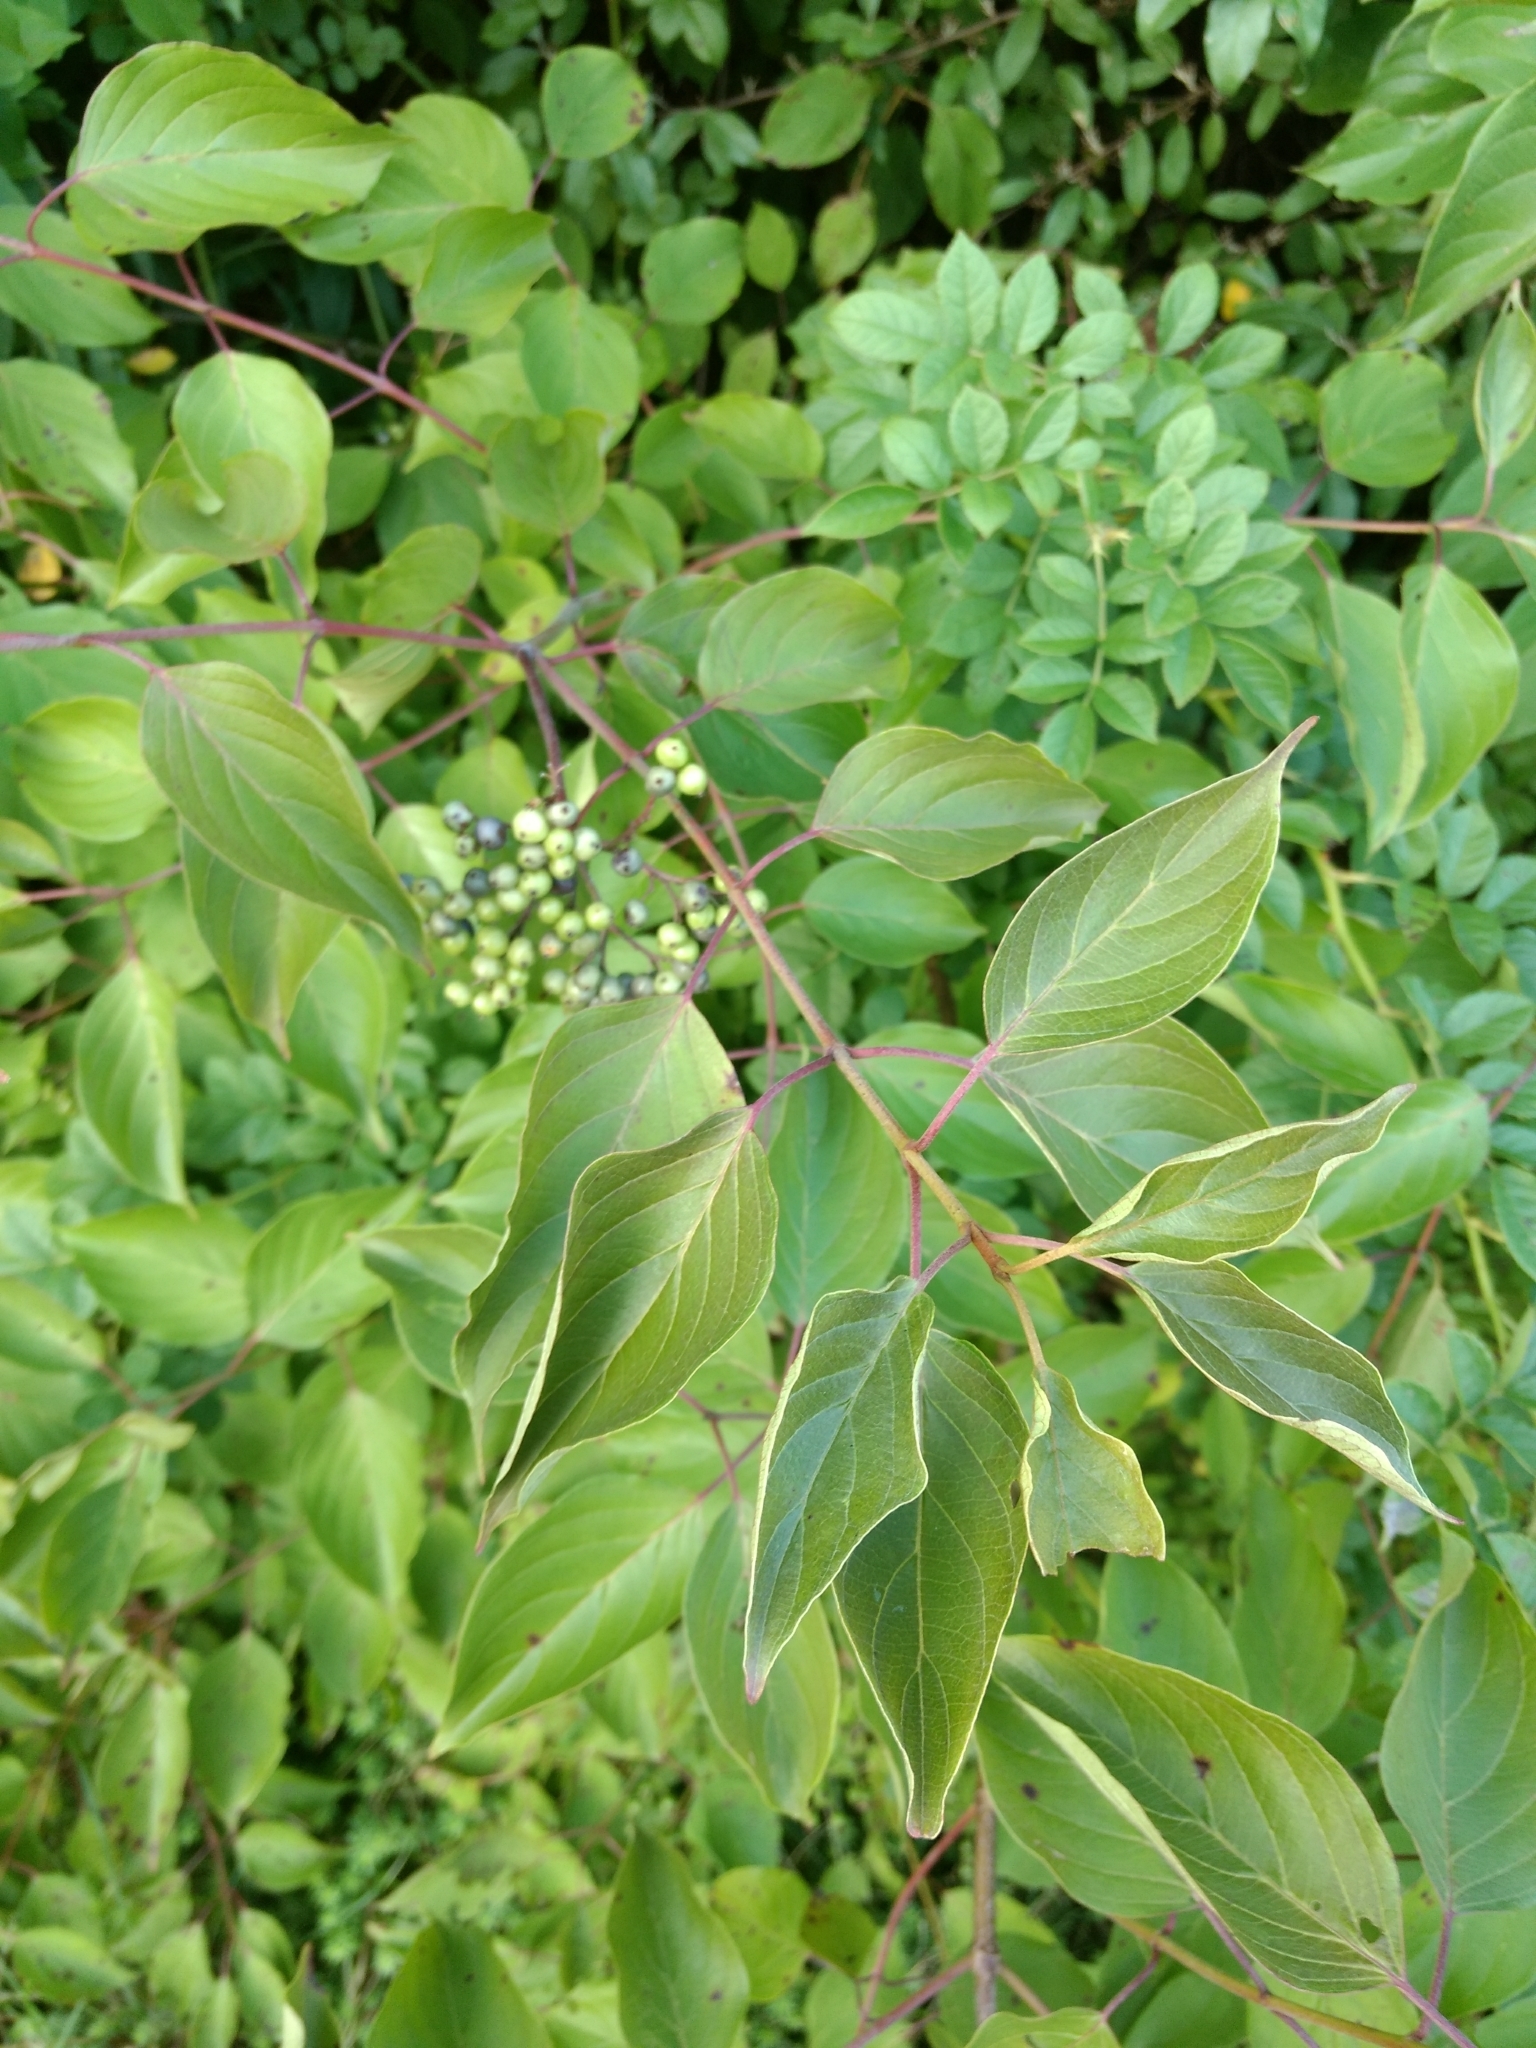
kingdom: Plantae
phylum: Tracheophyta
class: Magnoliopsida
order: Cornales
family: Cornaceae
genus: Cornus
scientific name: Cornus amomum
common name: Silky dogwood
